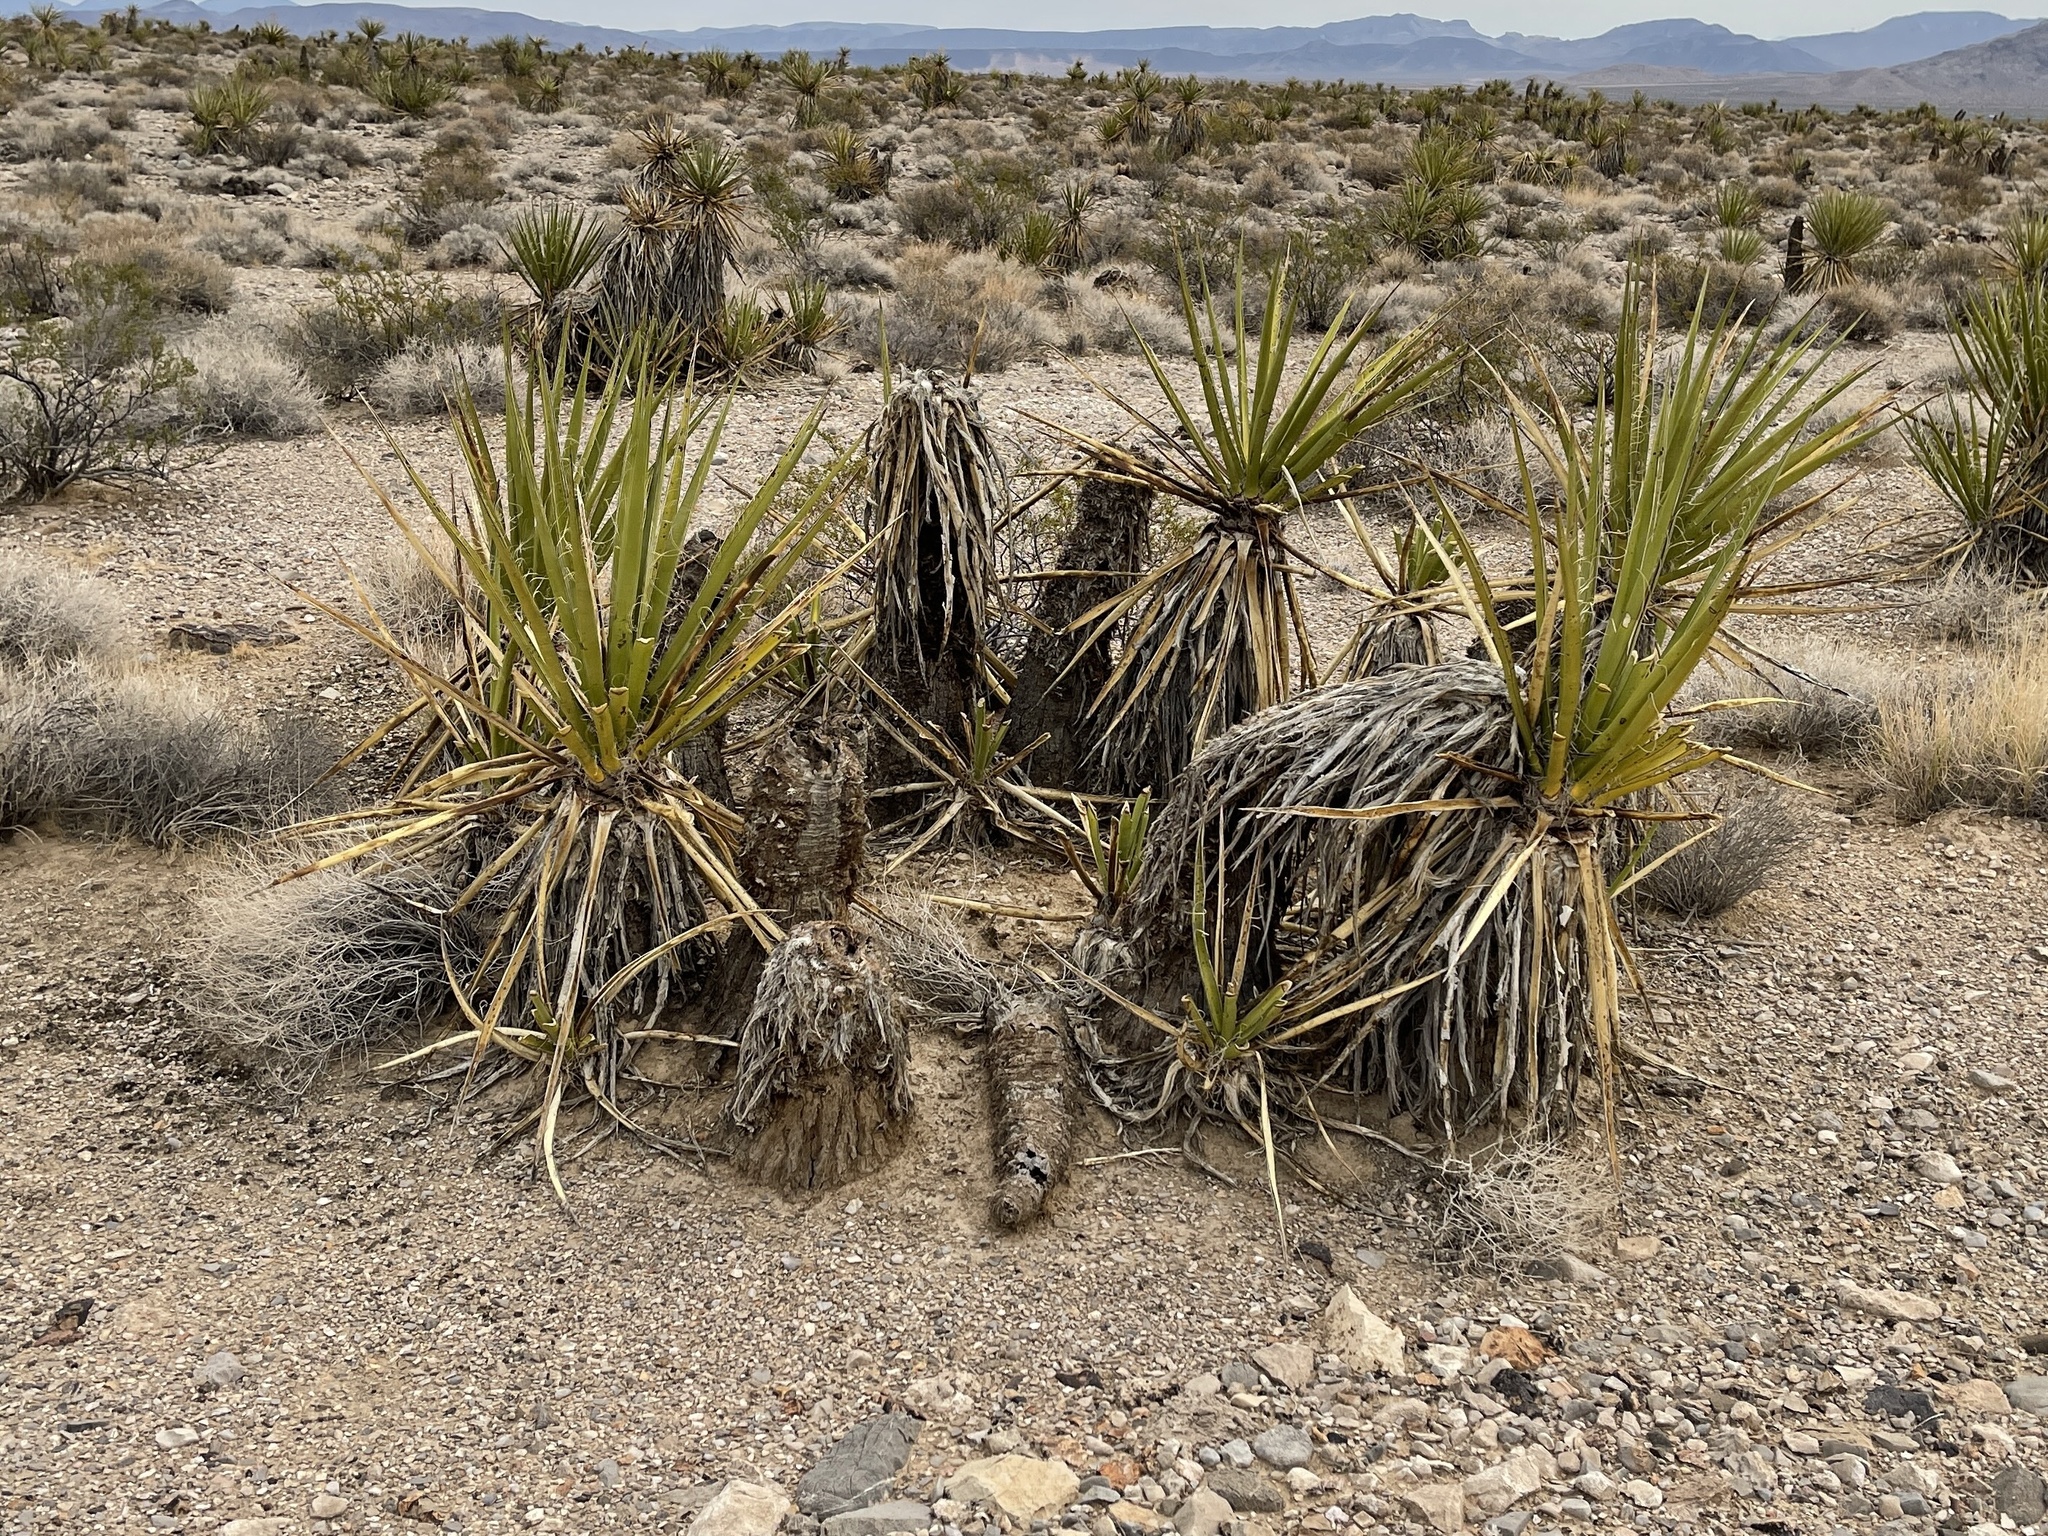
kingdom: Plantae
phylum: Tracheophyta
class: Liliopsida
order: Asparagales
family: Asparagaceae
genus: Yucca
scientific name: Yucca schidigera
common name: Mojave yucca
